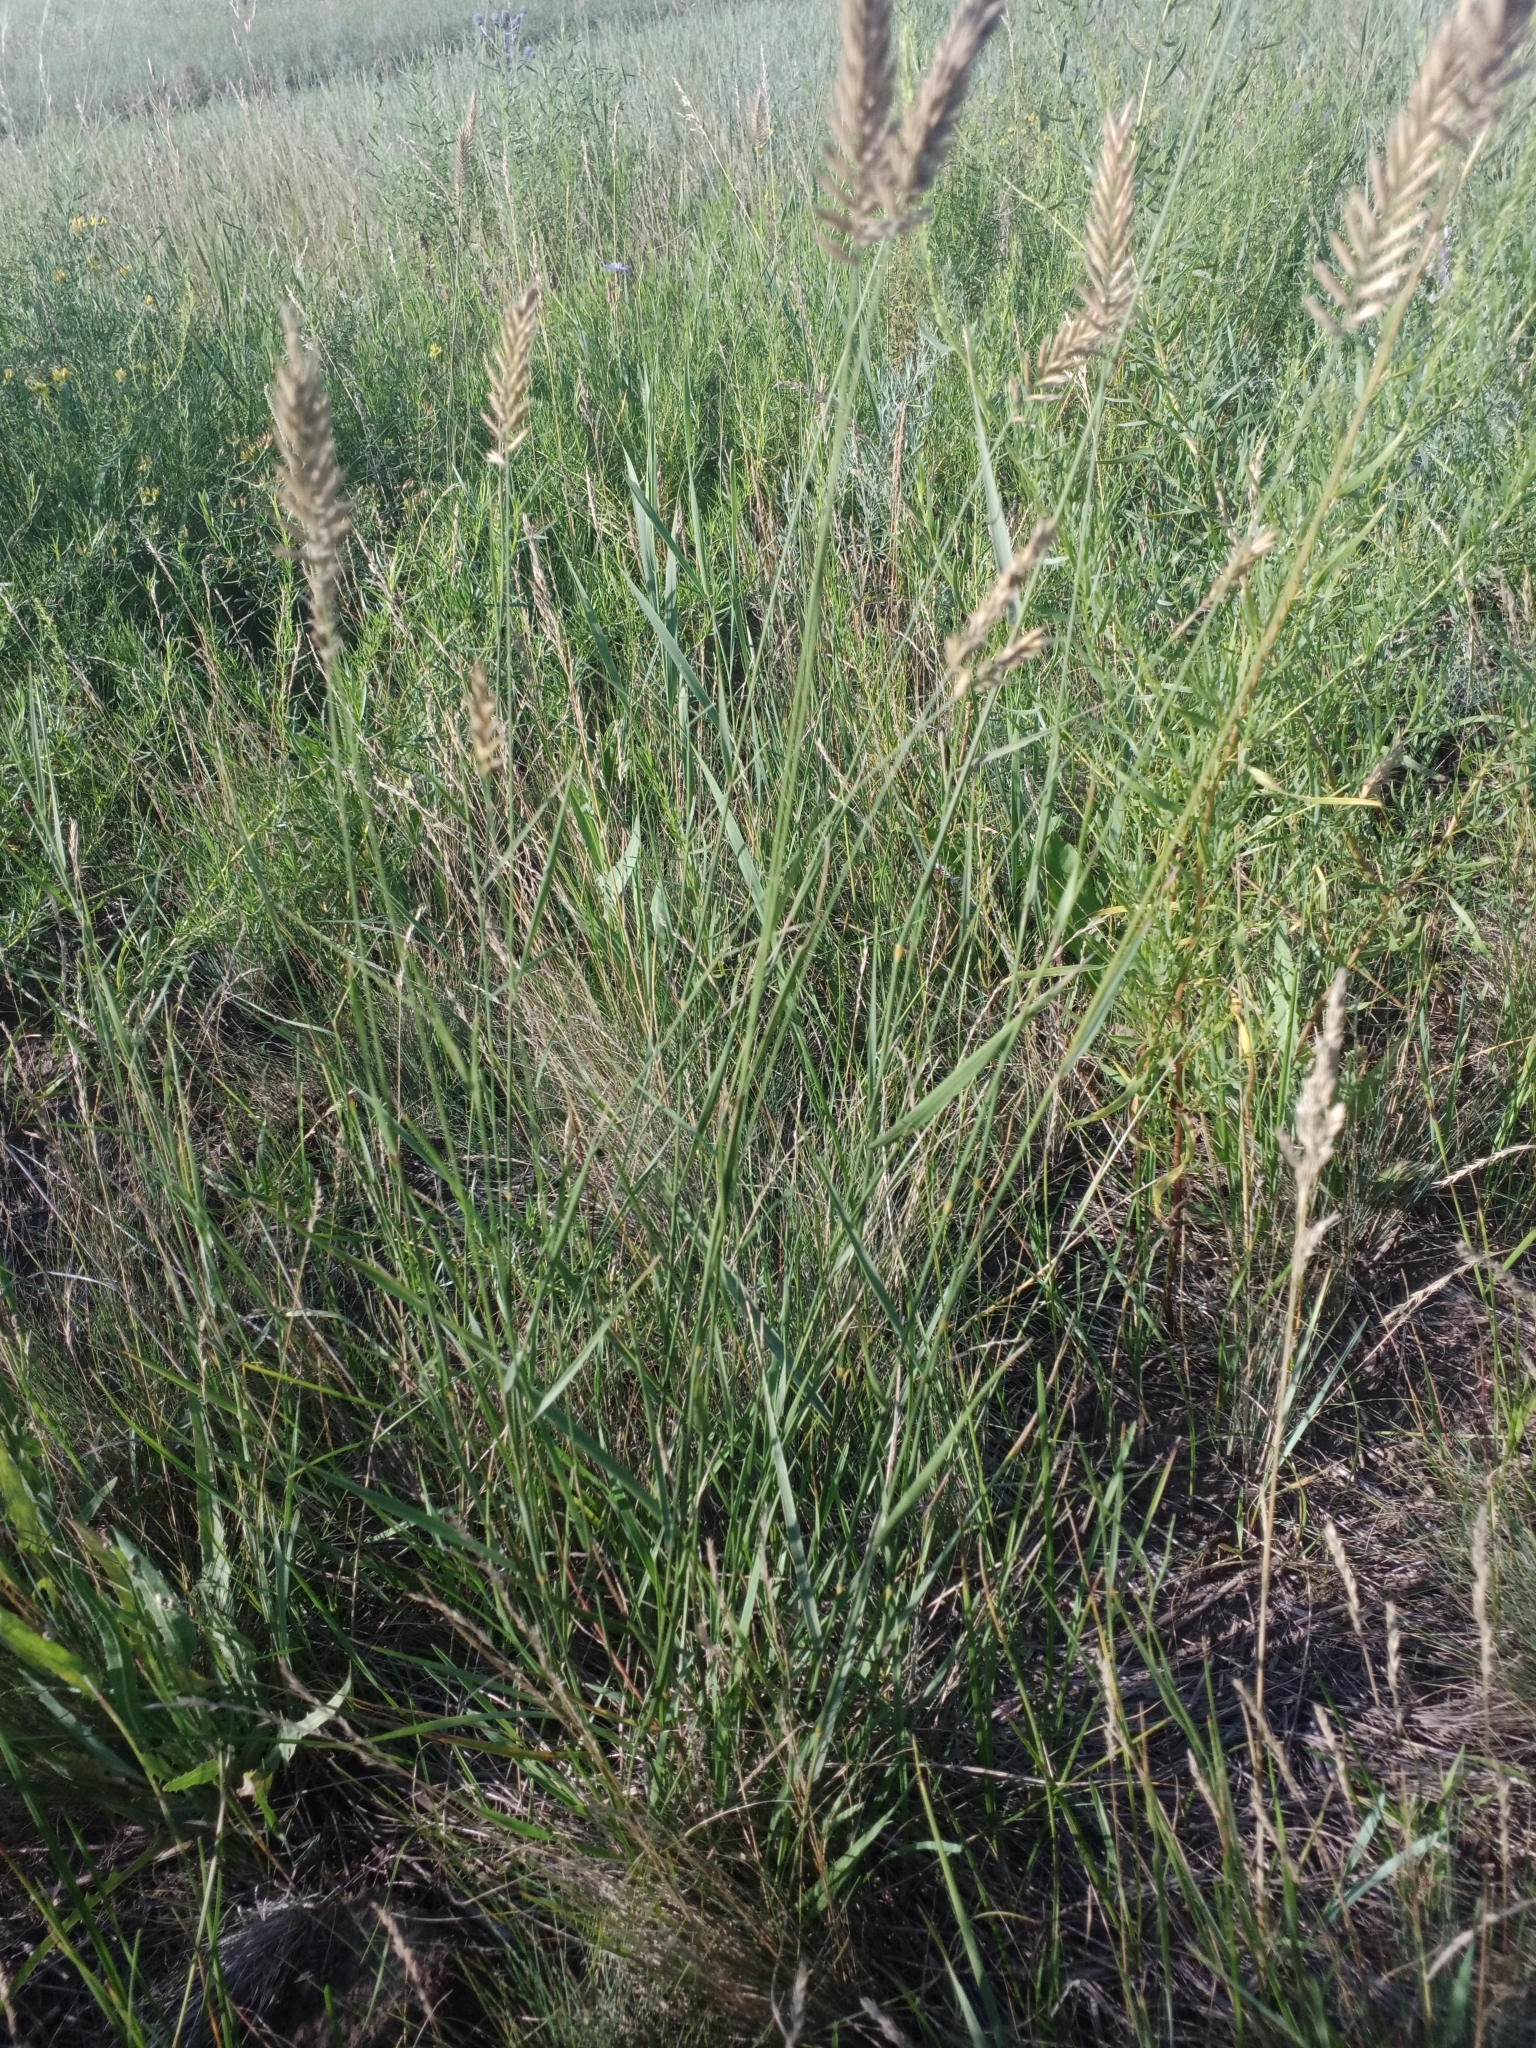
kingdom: Plantae
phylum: Tracheophyta
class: Liliopsida
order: Poales
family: Poaceae
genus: Agropyron
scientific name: Agropyron cristatum
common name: Crested wheatgrass
